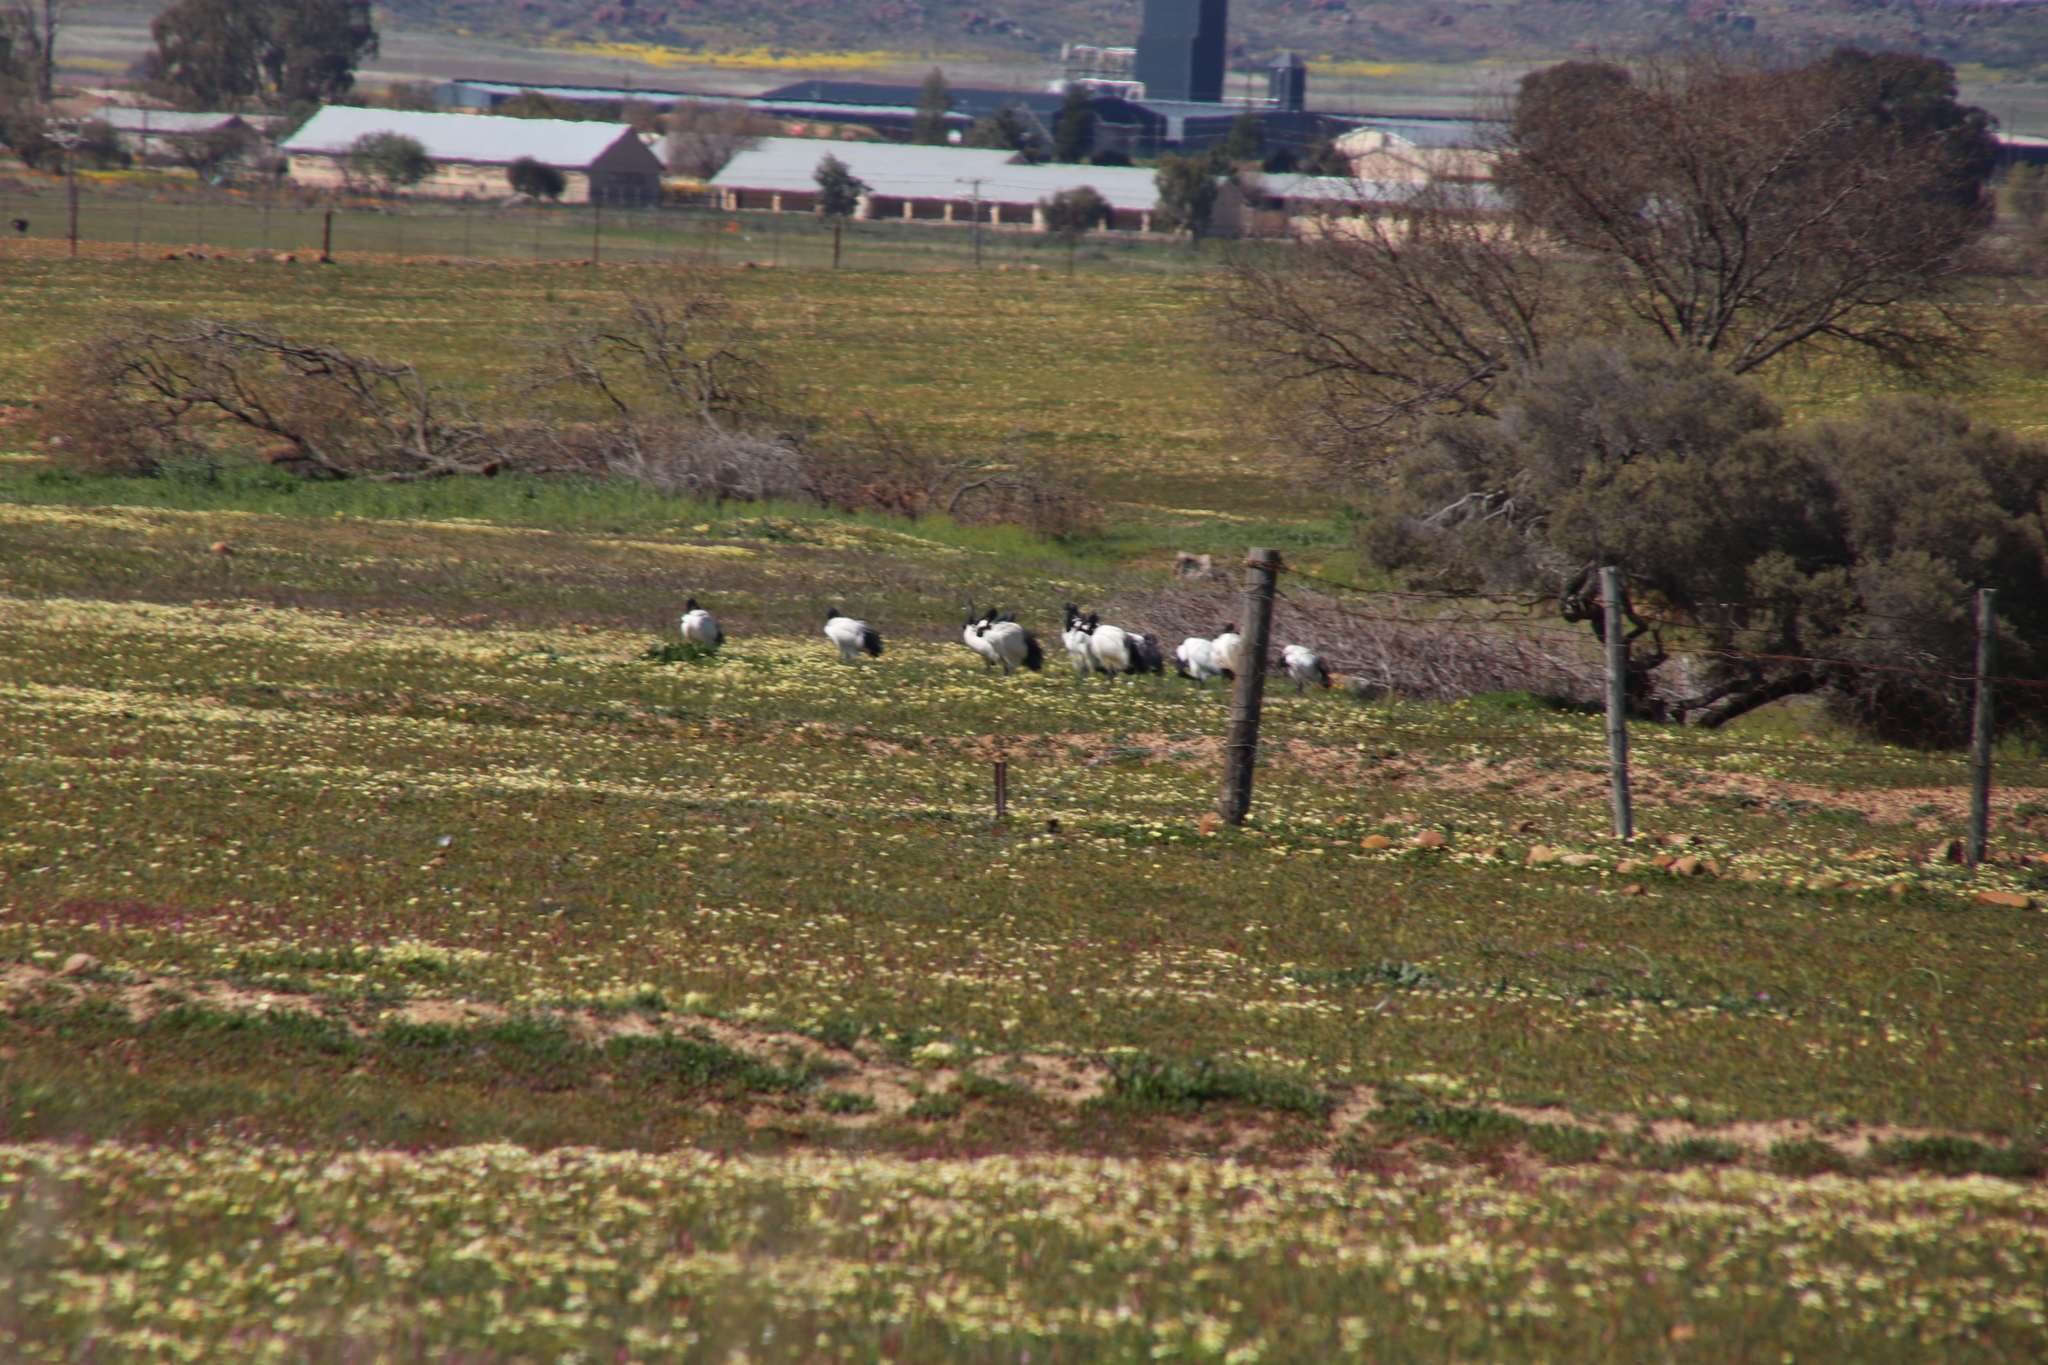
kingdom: Animalia
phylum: Chordata
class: Aves
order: Pelecaniformes
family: Threskiornithidae
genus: Threskiornis
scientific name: Threskiornis aethiopicus
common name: Sacred ibis
